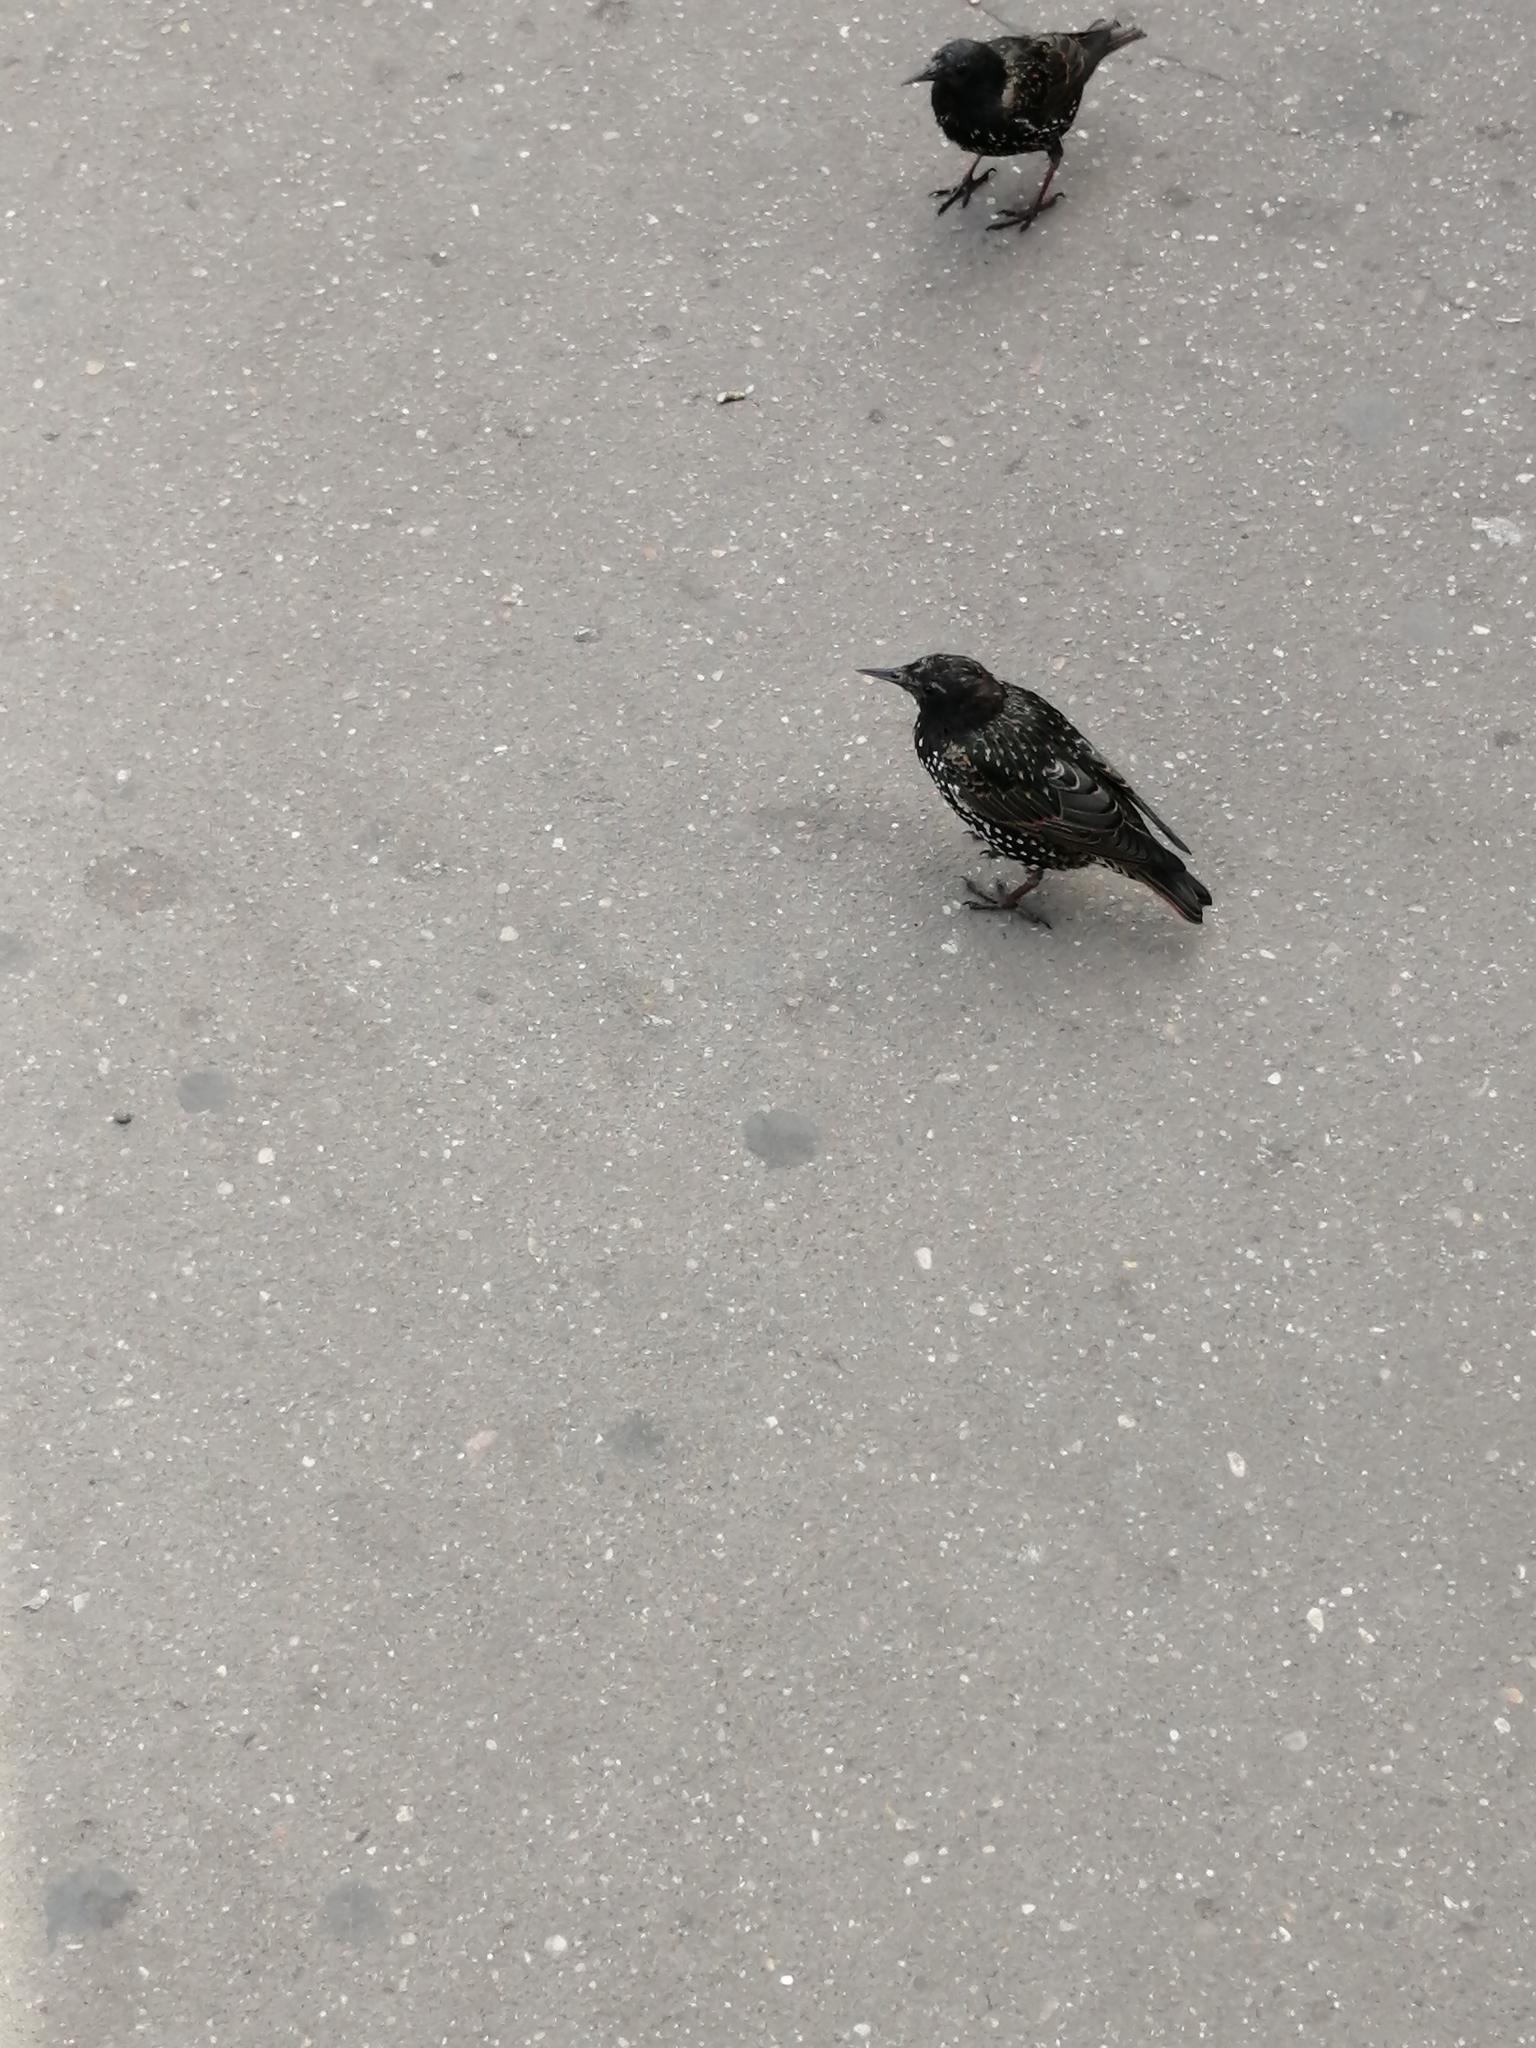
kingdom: Animalia
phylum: Chordata
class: Aves
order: Passeriformes
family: Sturnidae
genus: Sturnus
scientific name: Sturnus vulgaris
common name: Common starling
